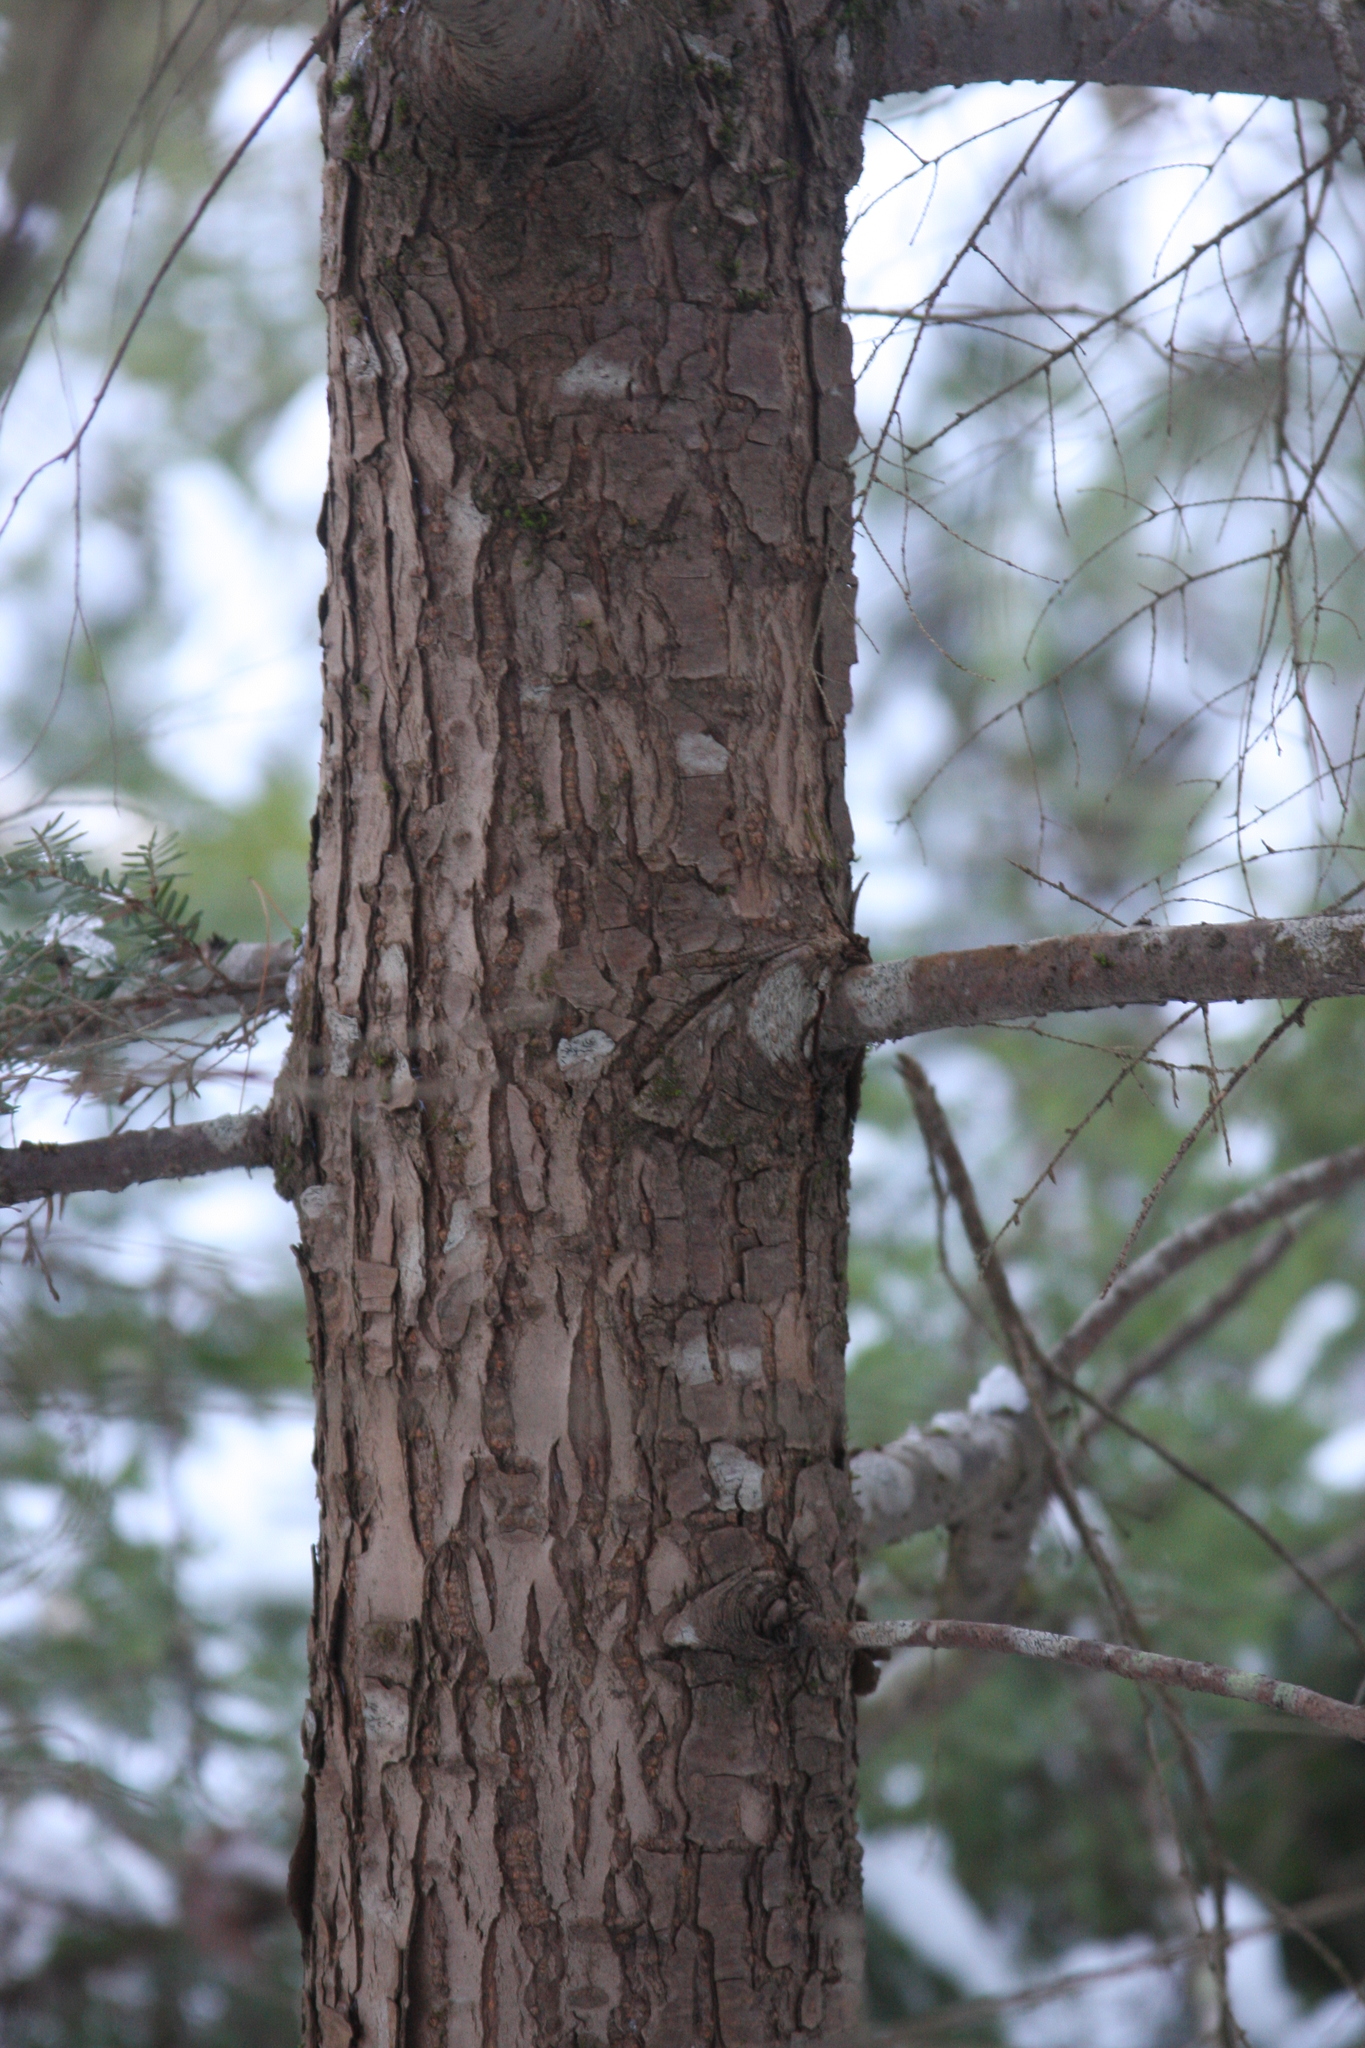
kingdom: Plantae
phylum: Tracheophyta
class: Pinopsida
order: Pinales
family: Pinaceae
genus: Tsuga
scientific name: Tsuga canadensis
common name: Eastern hemlock
